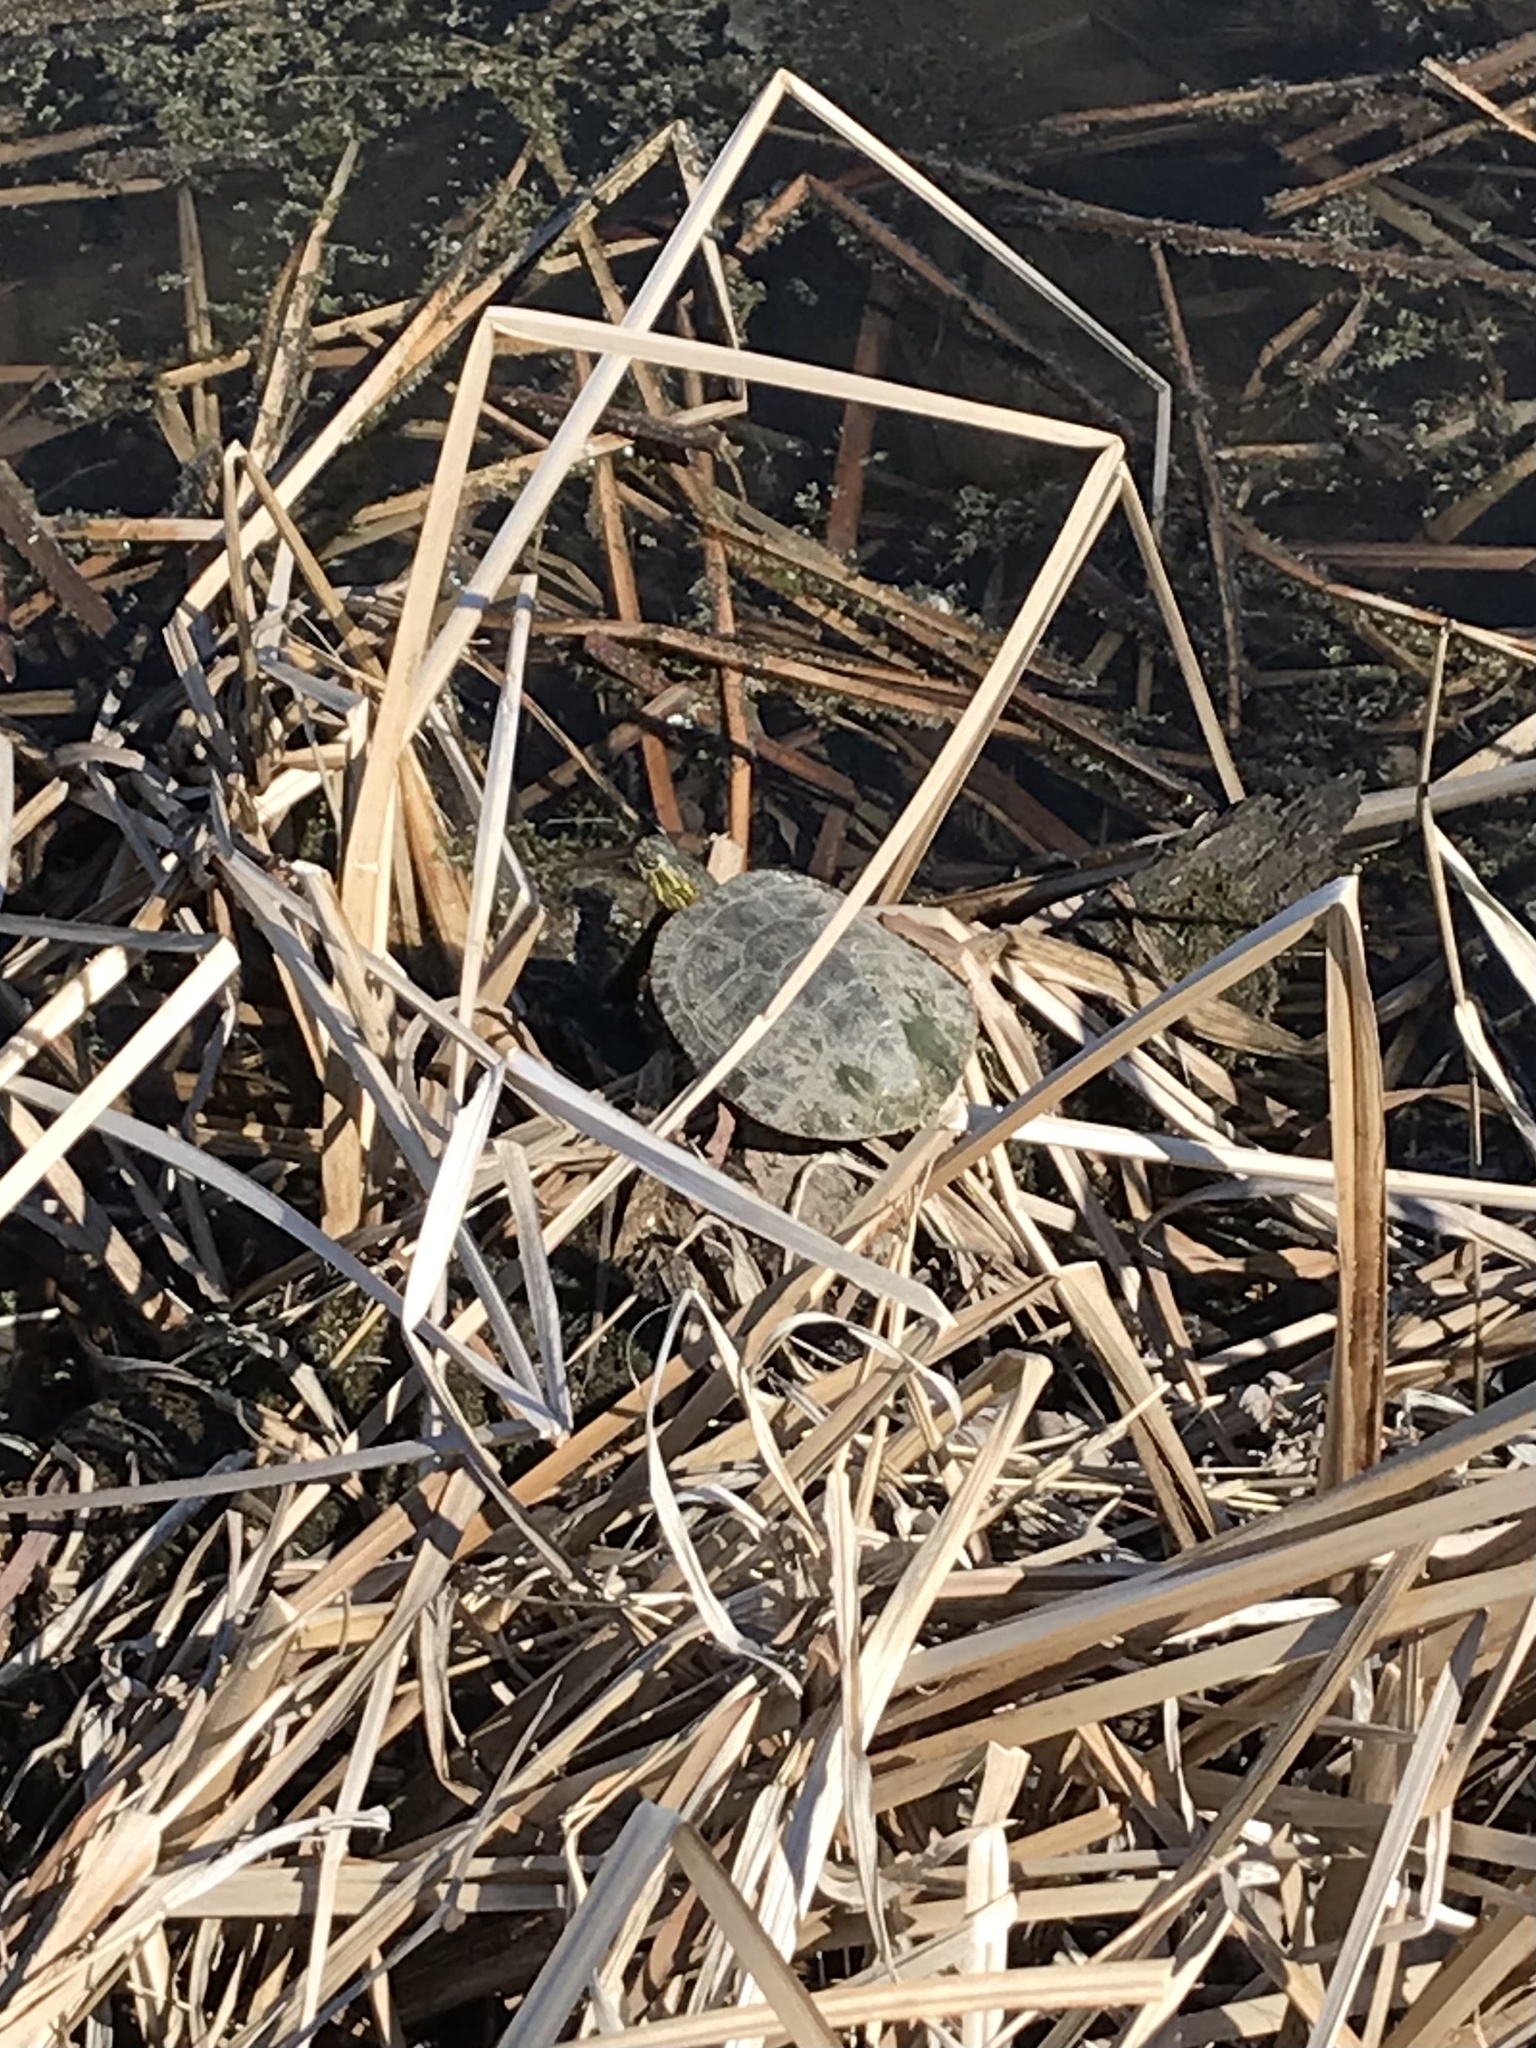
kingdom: Animalia
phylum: Chordata
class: Testudines
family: Emydidae
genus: Chrysemys
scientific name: Chrysemys picta
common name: Painted turtle
